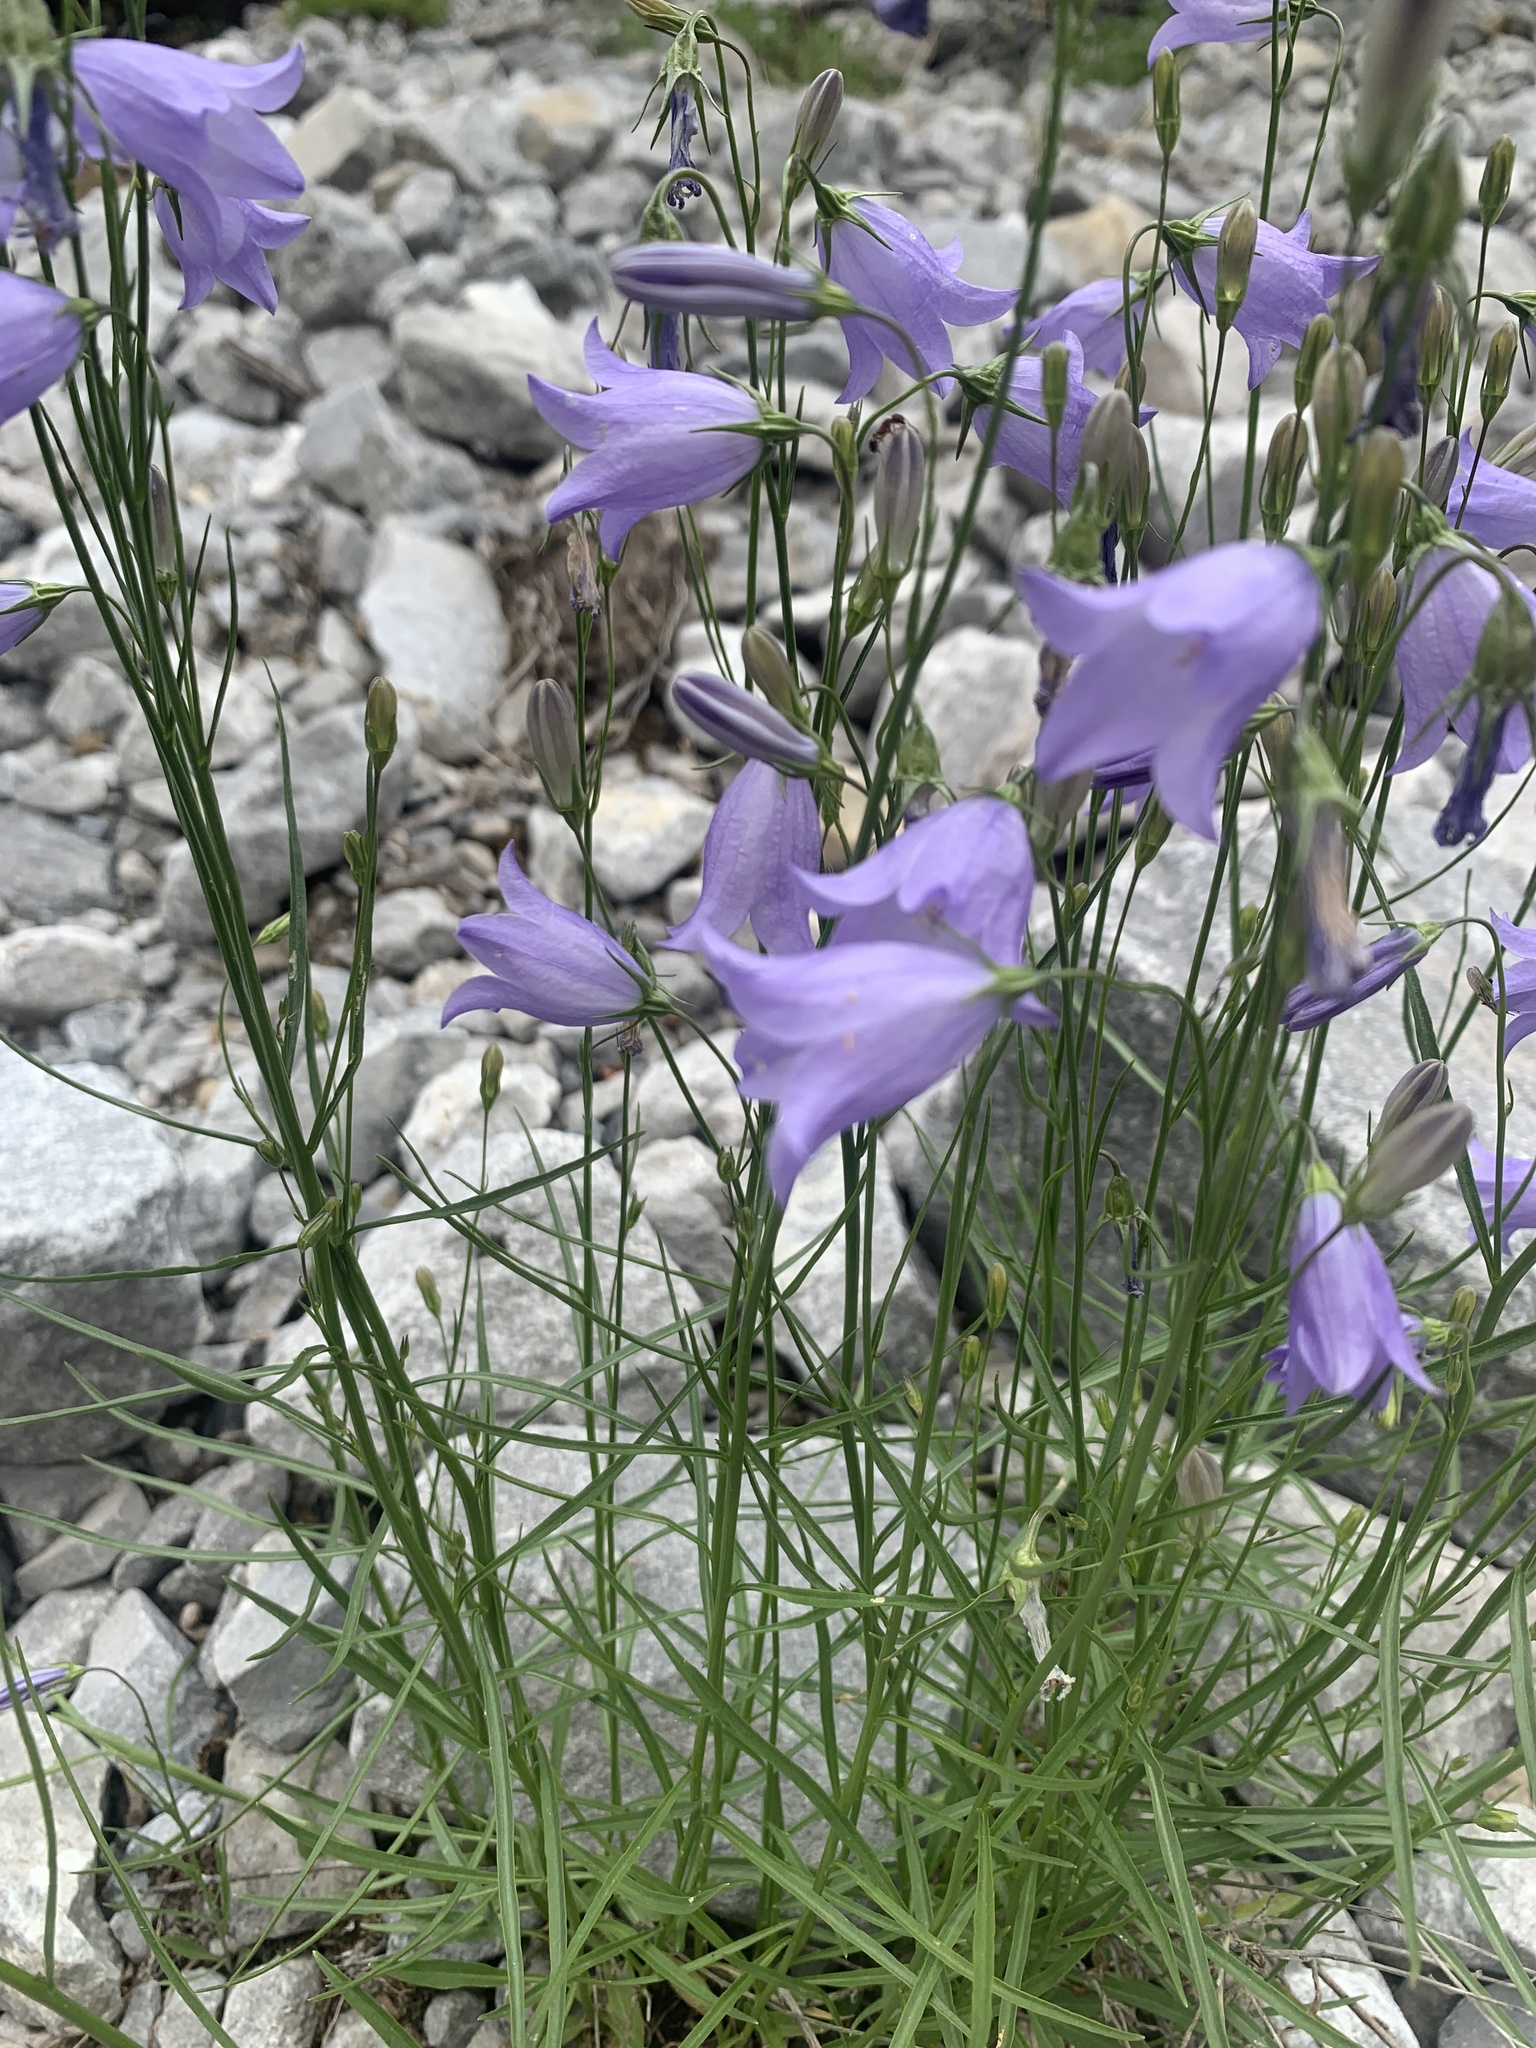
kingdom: Plantae
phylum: Tracheophyta
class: Magnoliopsida
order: Asterales
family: Campanulaceae
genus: Campanula
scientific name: Campanula alaskana
